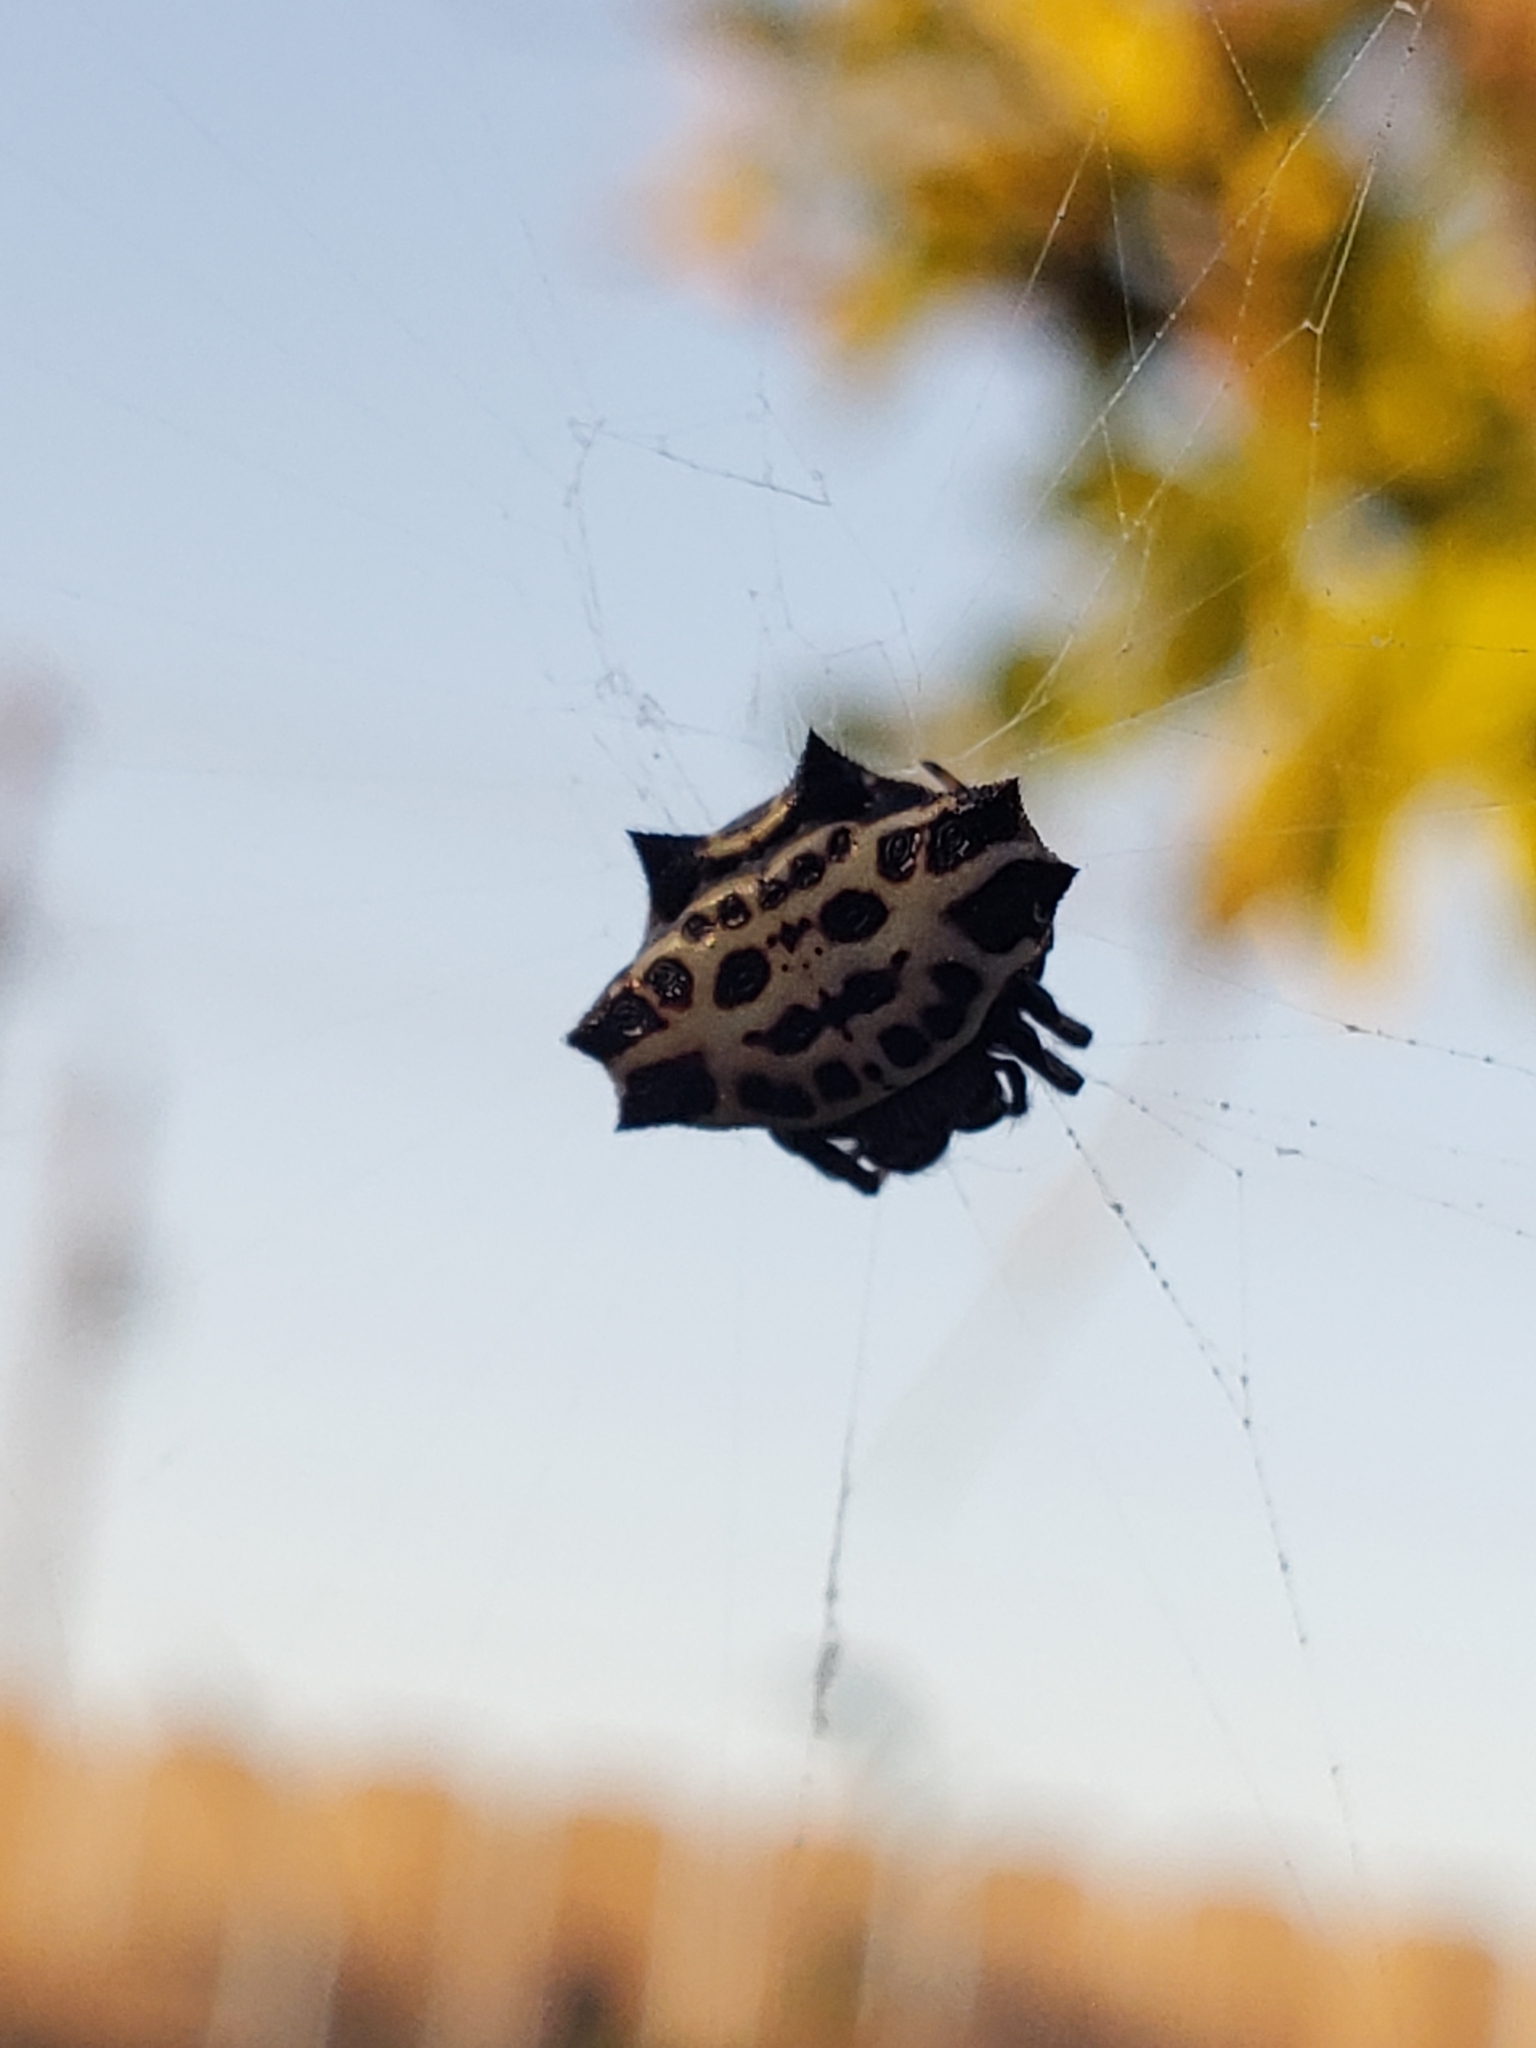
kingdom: Animalia
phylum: Arthropoda
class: Arachnida
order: Araneae
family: Araneidae
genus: Gasteracantha
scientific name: Gasteracantha cancriformis
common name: Orb weavers
